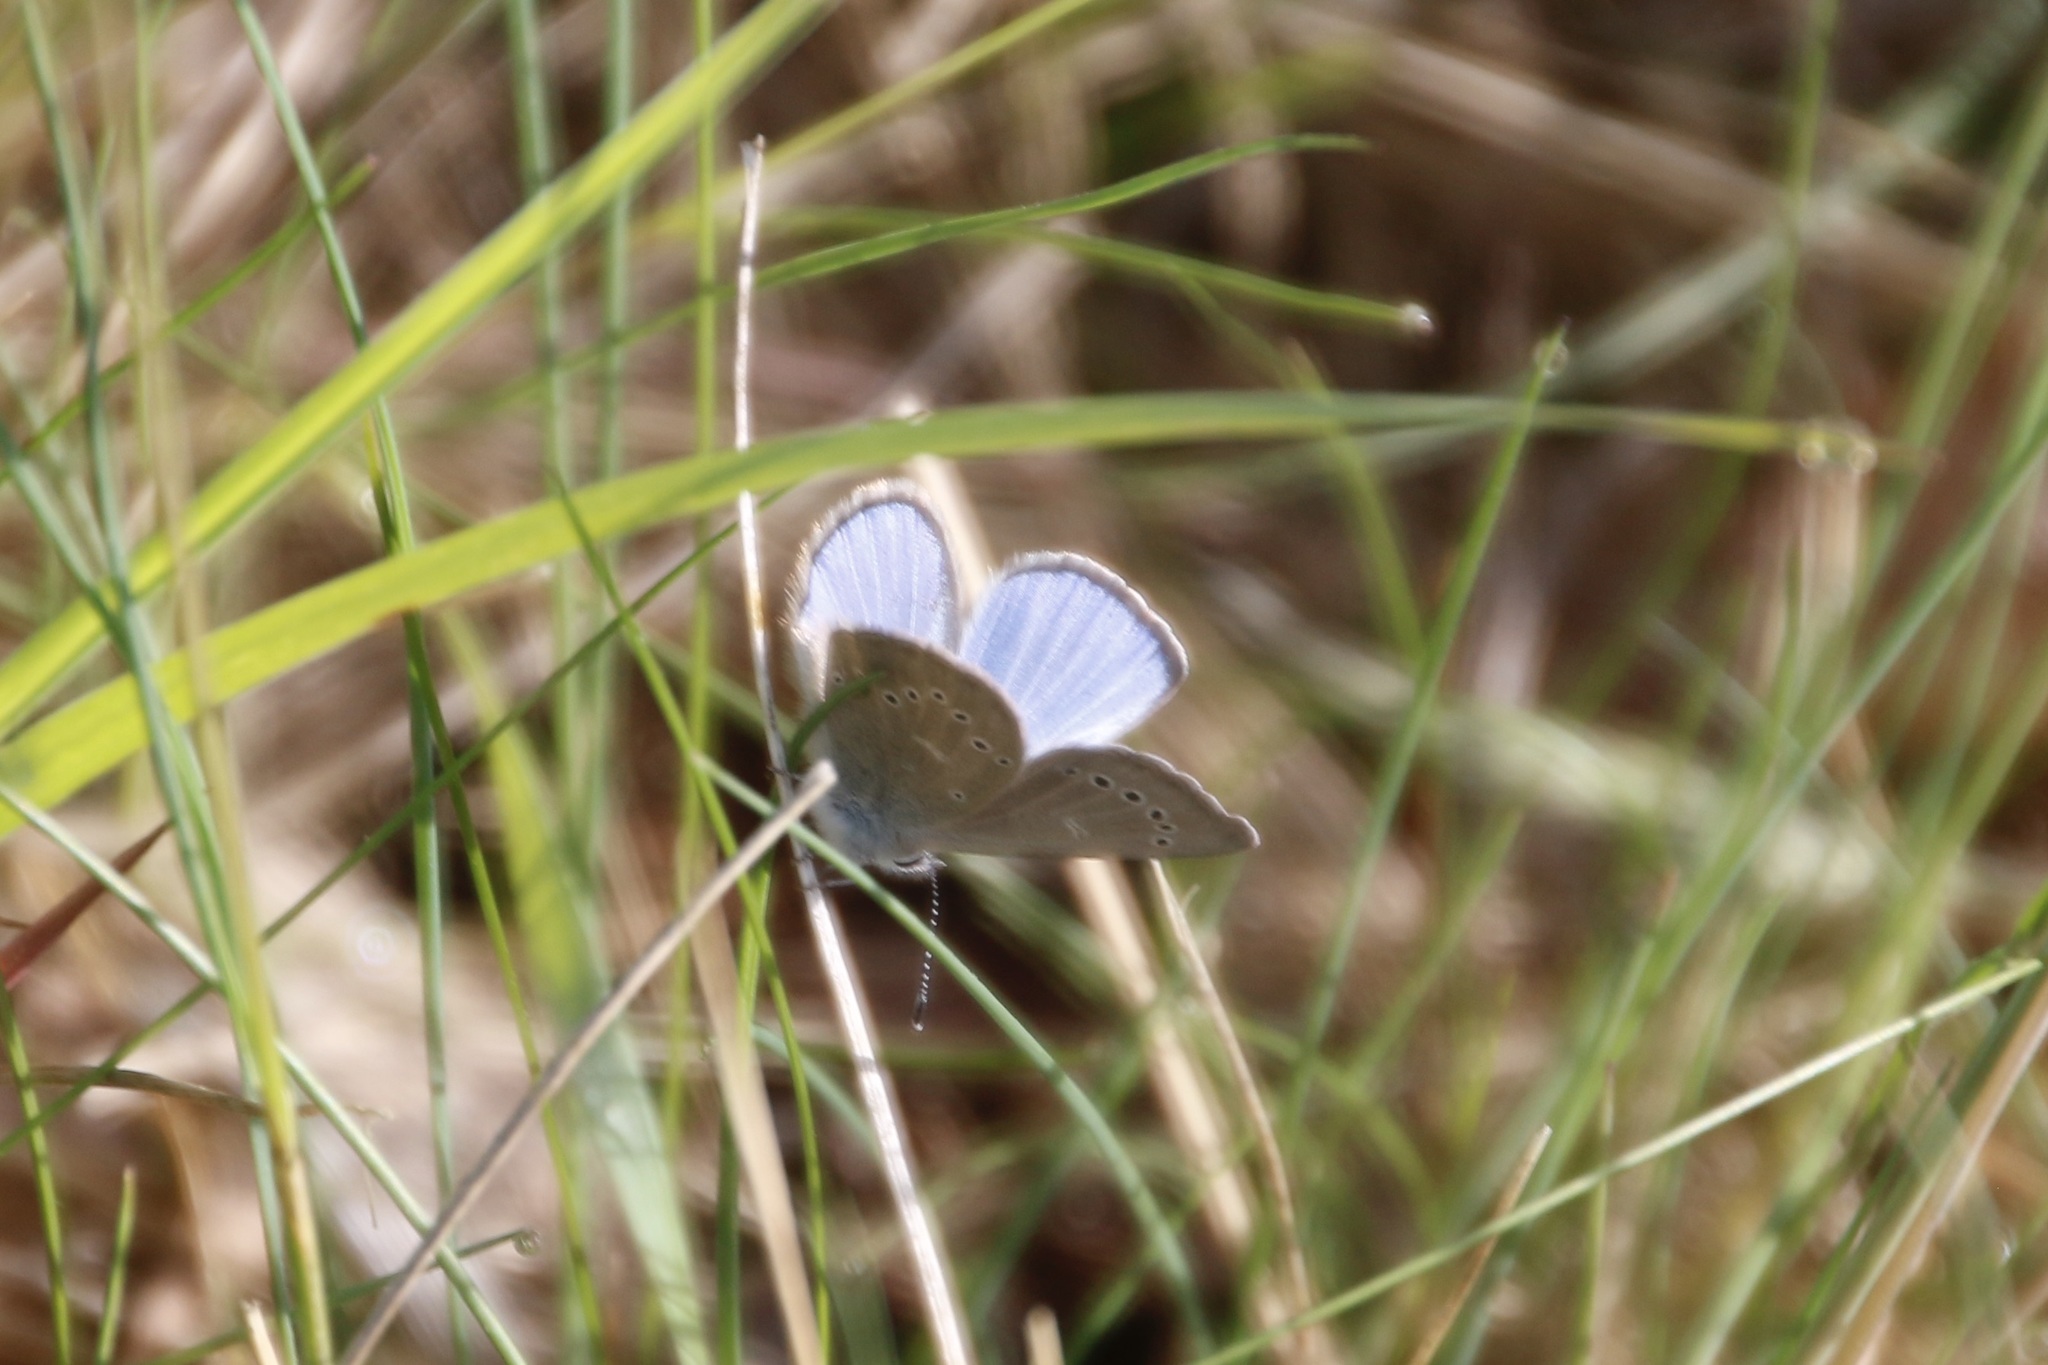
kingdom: Animalia
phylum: Arthropoda
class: Insecta
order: Lepidoptera
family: Lycaenidae
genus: Glaucopsyche
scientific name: Glaucopsyche lygdamus
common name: Silvery blue
